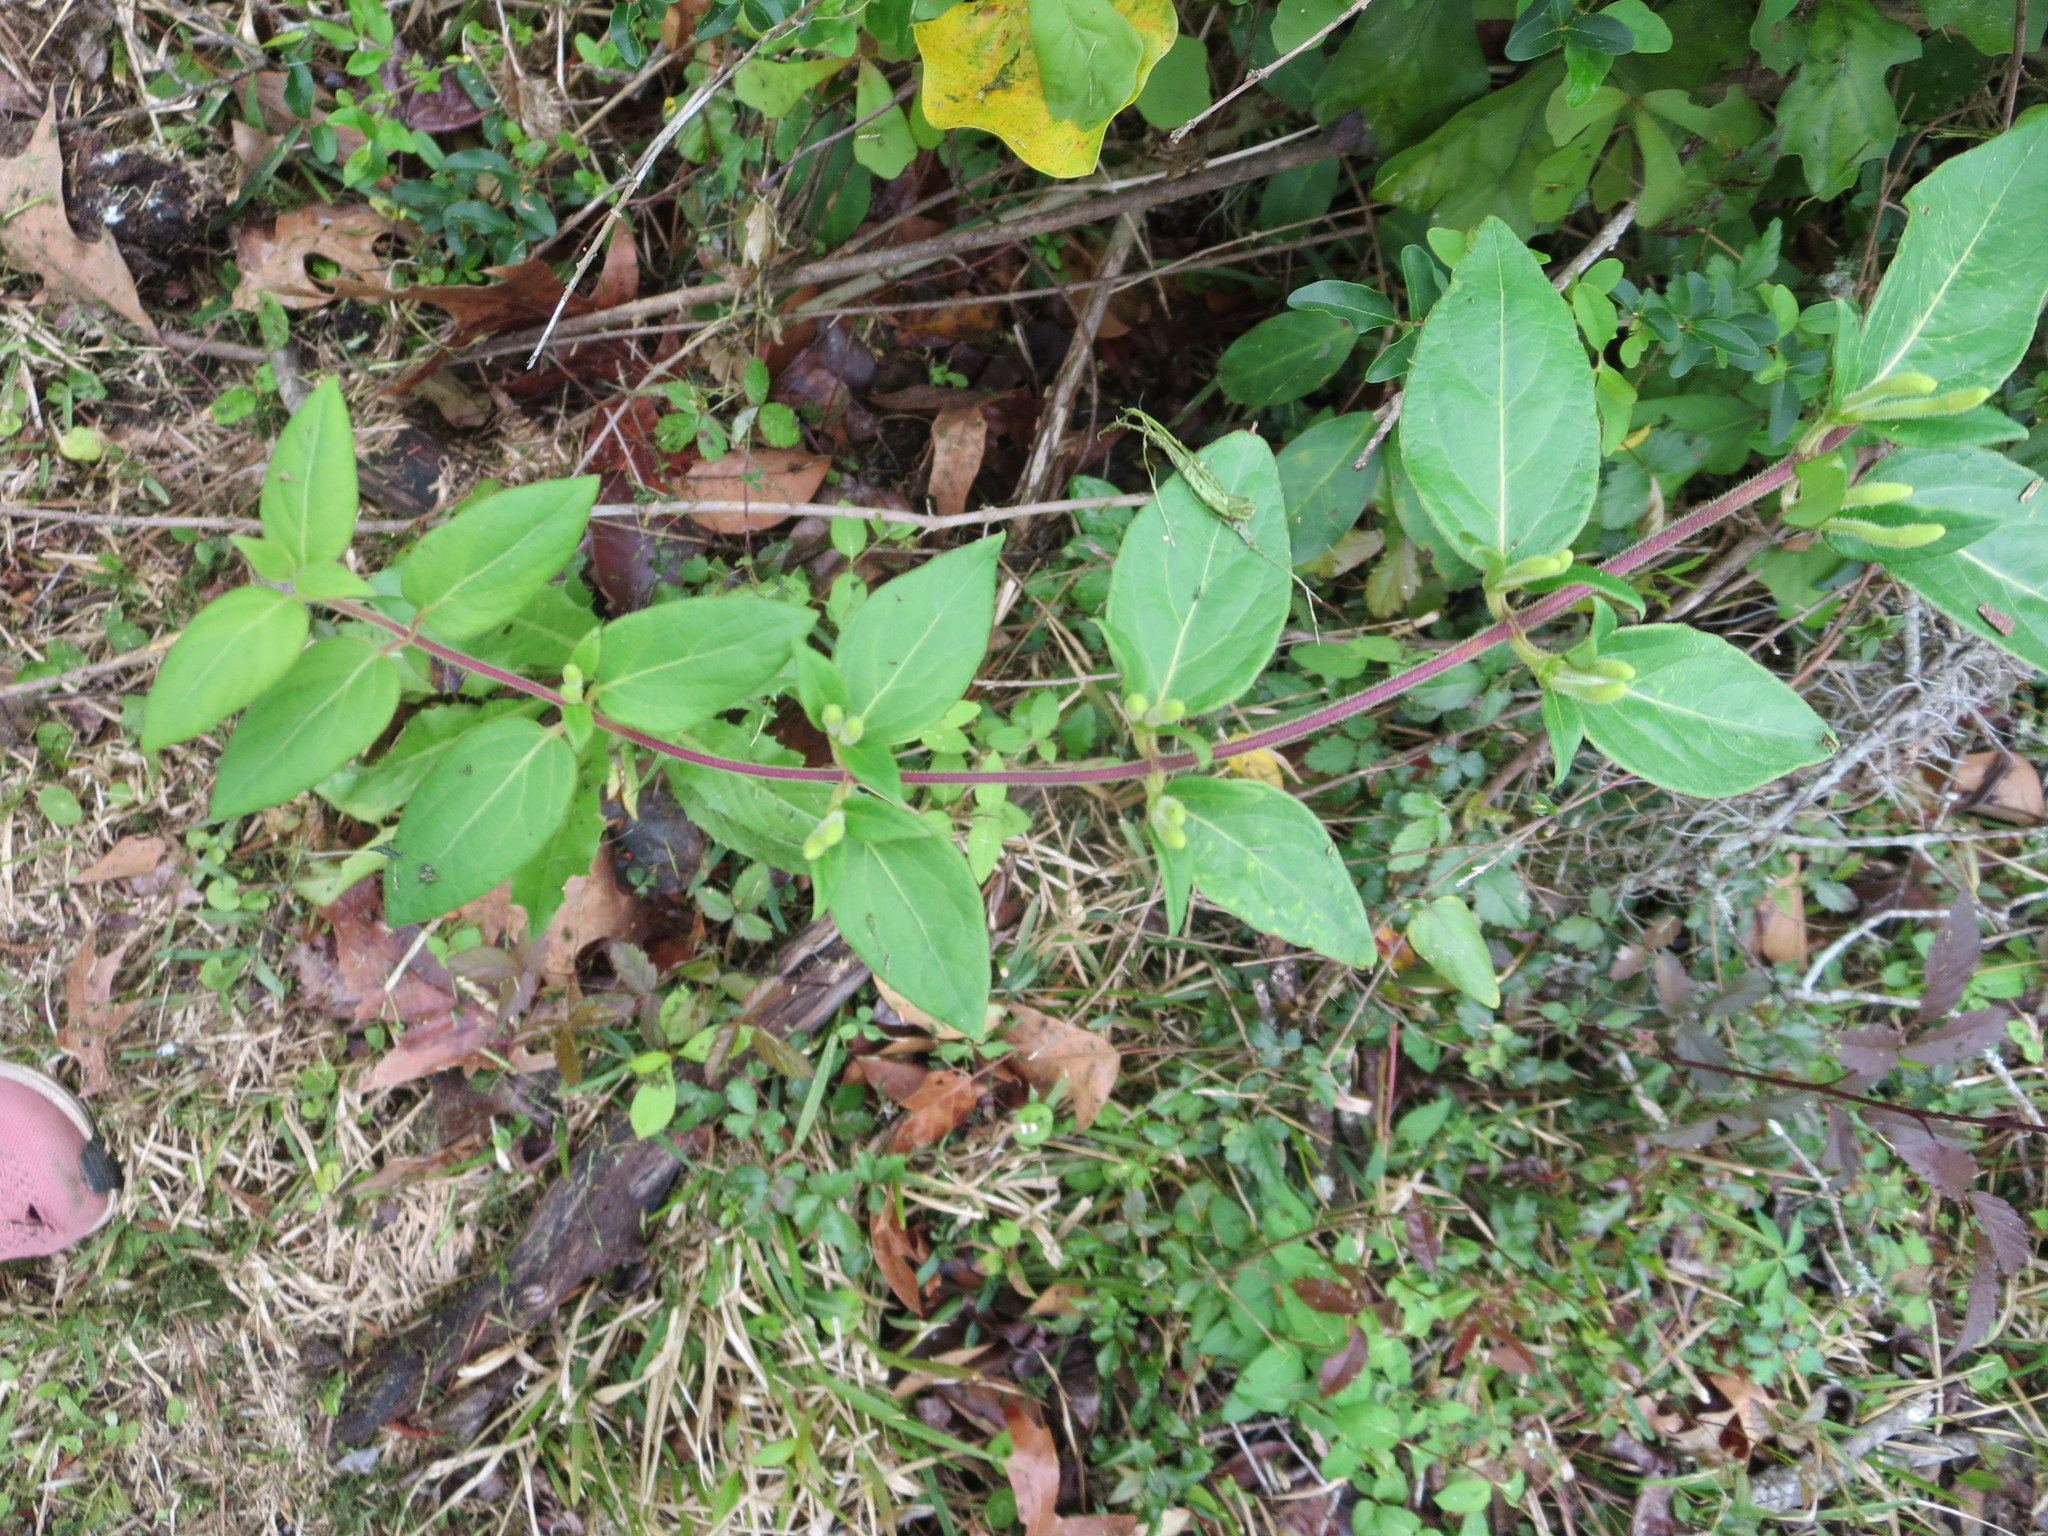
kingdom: Plantae
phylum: Tracheophyta
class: Magnoliopsida
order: Dipsacales
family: Caprifoliaceae
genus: Lonicera
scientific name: Lonicera japonica
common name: Japanese honeysuckle
